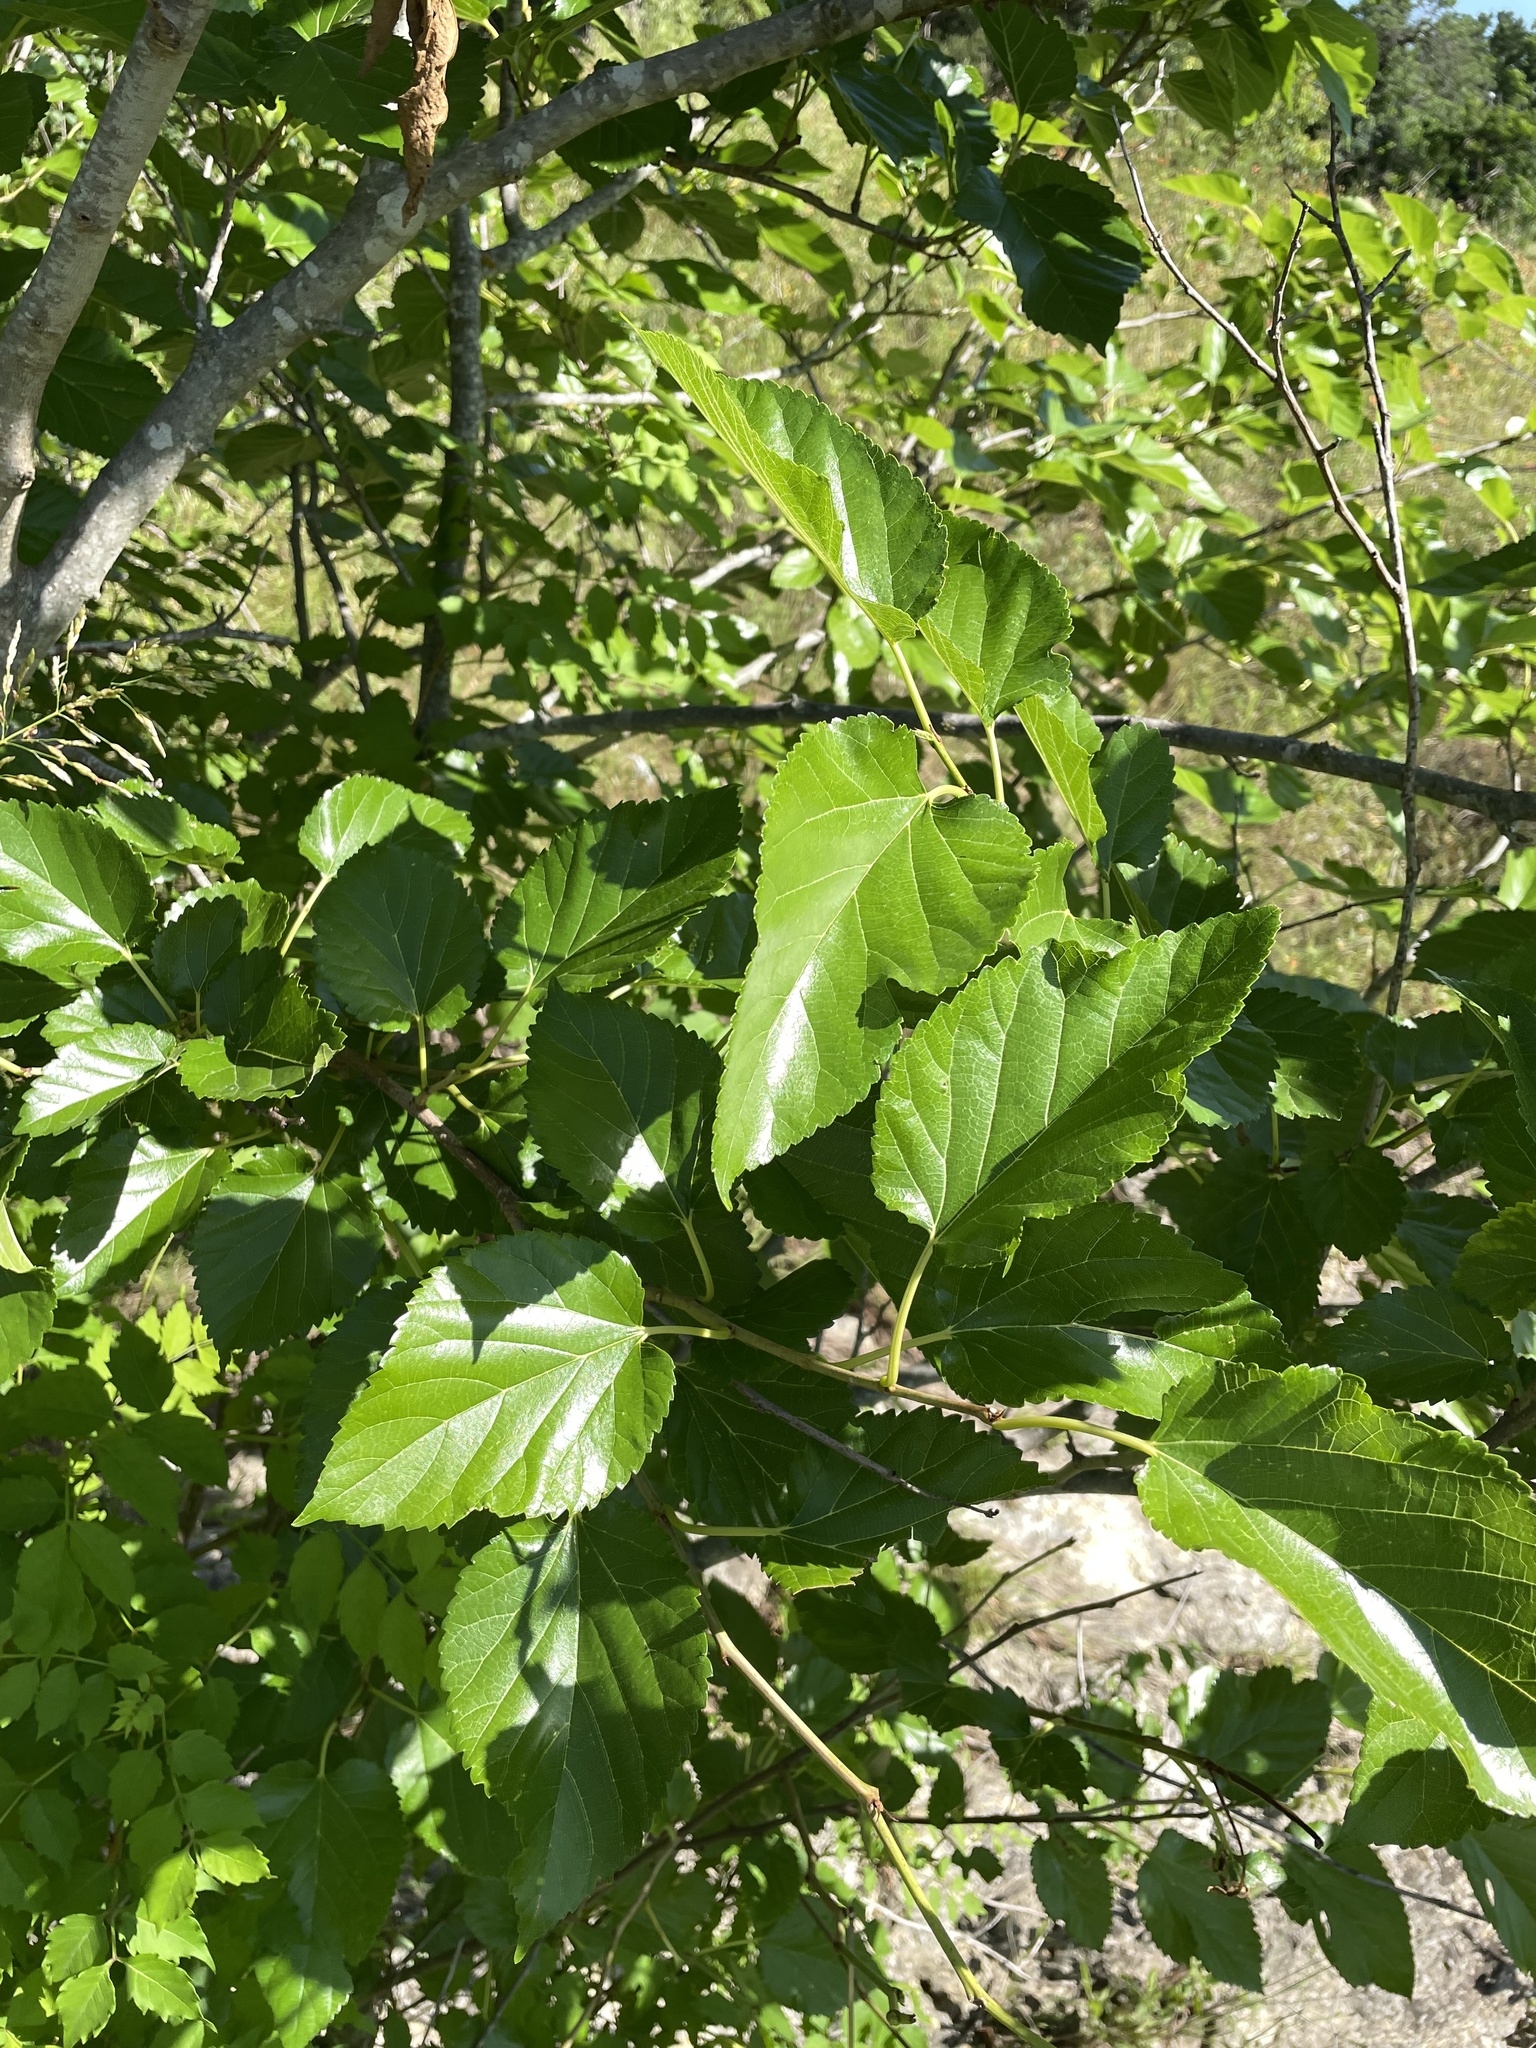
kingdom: Plantae
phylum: Tracheophyta
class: Magnoliopsida
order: Rosales
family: Moraceae
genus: Morus
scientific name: Morus alba
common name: White mulberry
